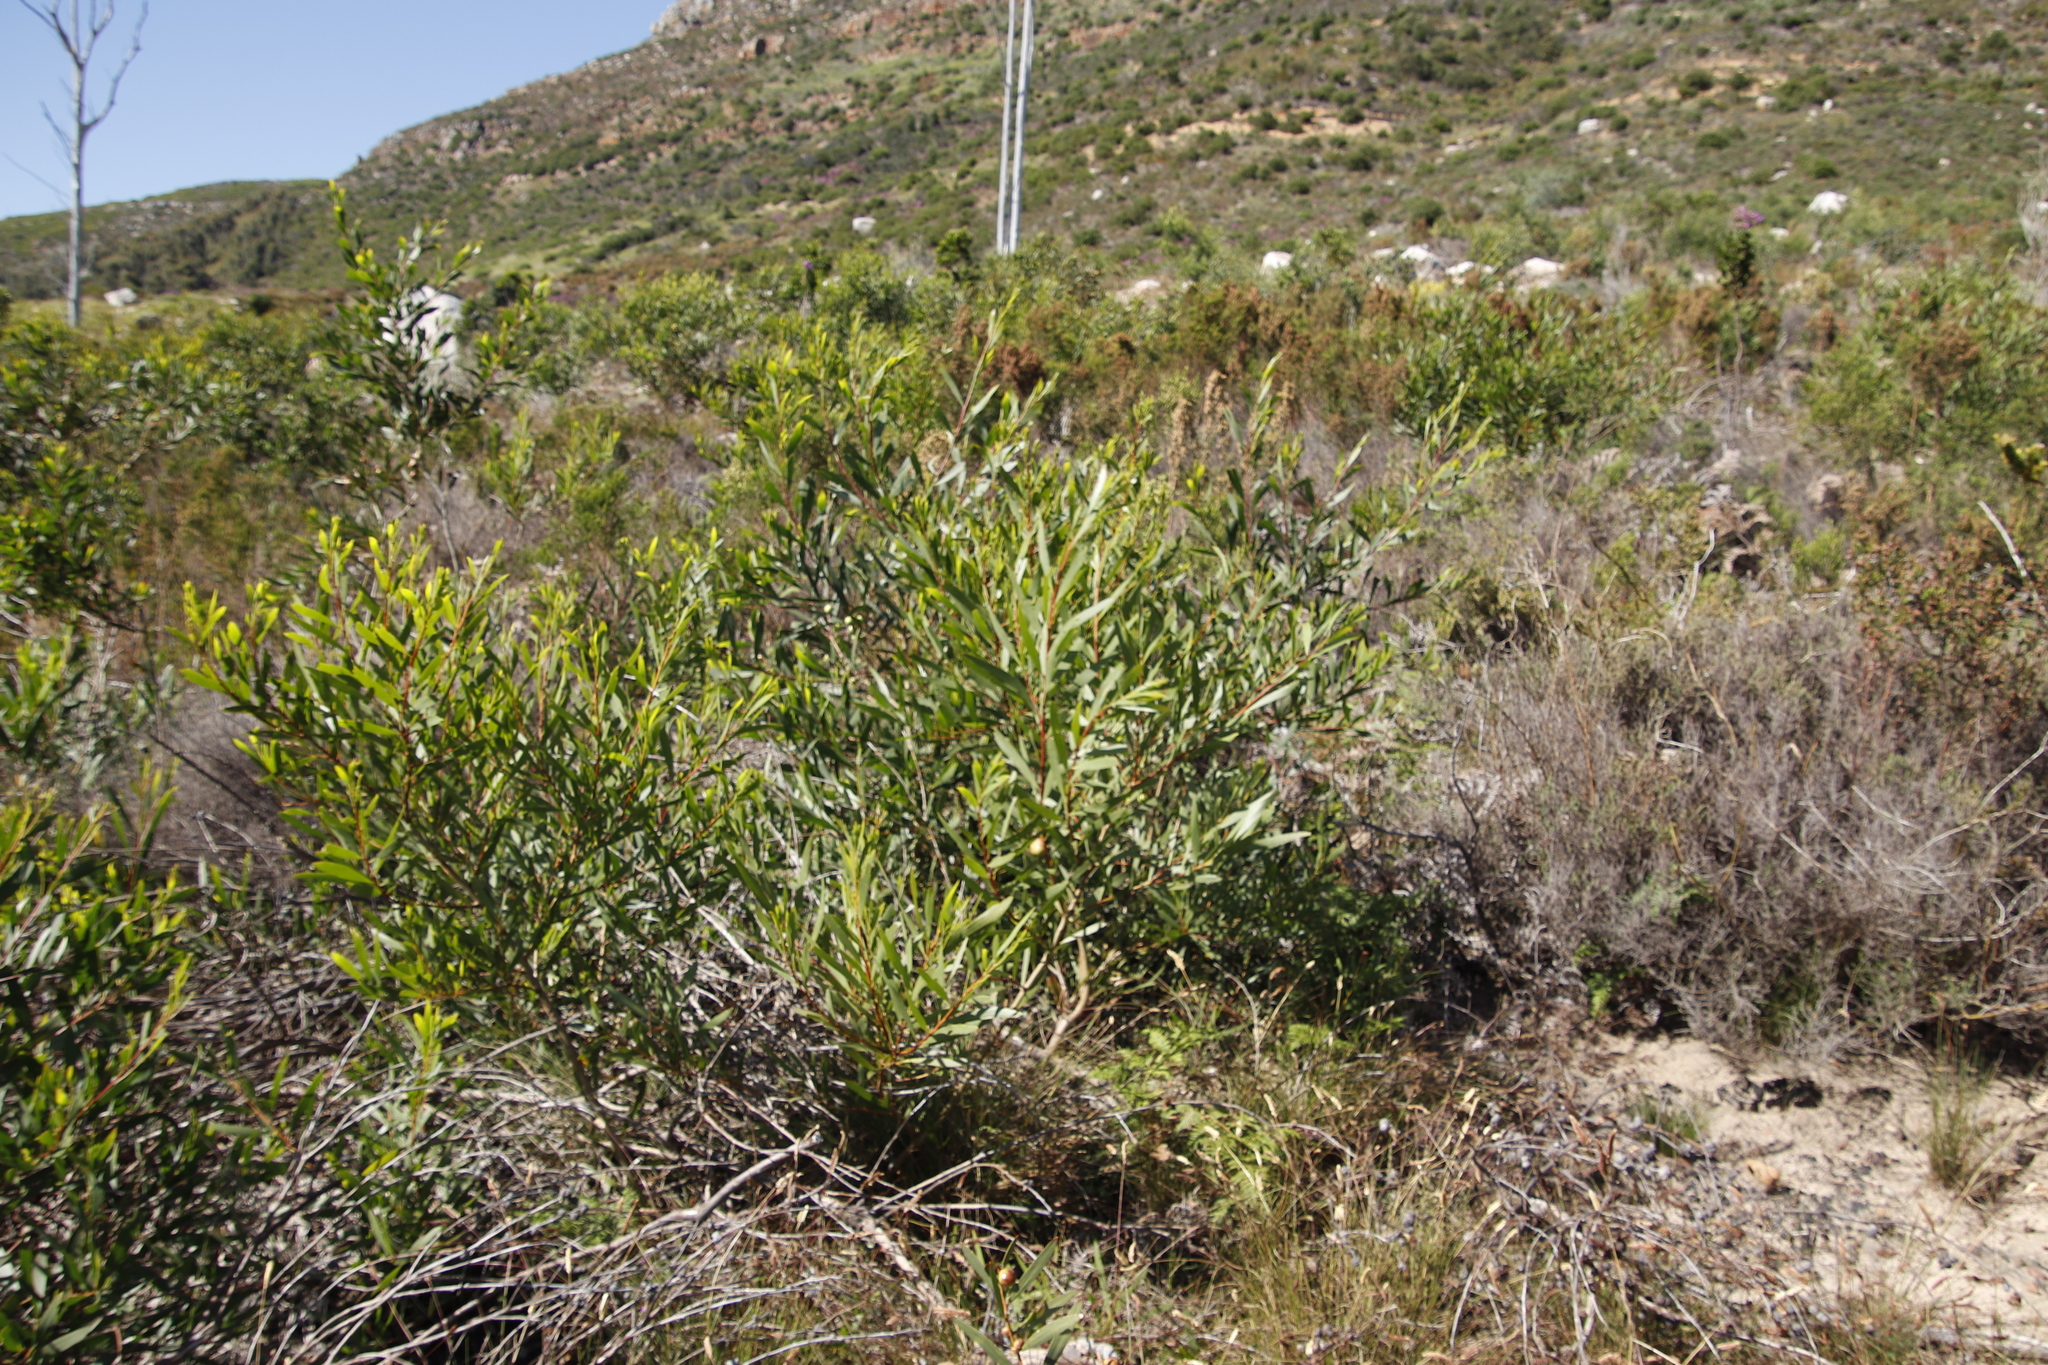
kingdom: Plantae
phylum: Tracheophyta
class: Magnoliopsida
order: Fabales
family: Fabaceae
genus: Acacia
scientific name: Acacia longifolia
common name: Sydney golden wattle
